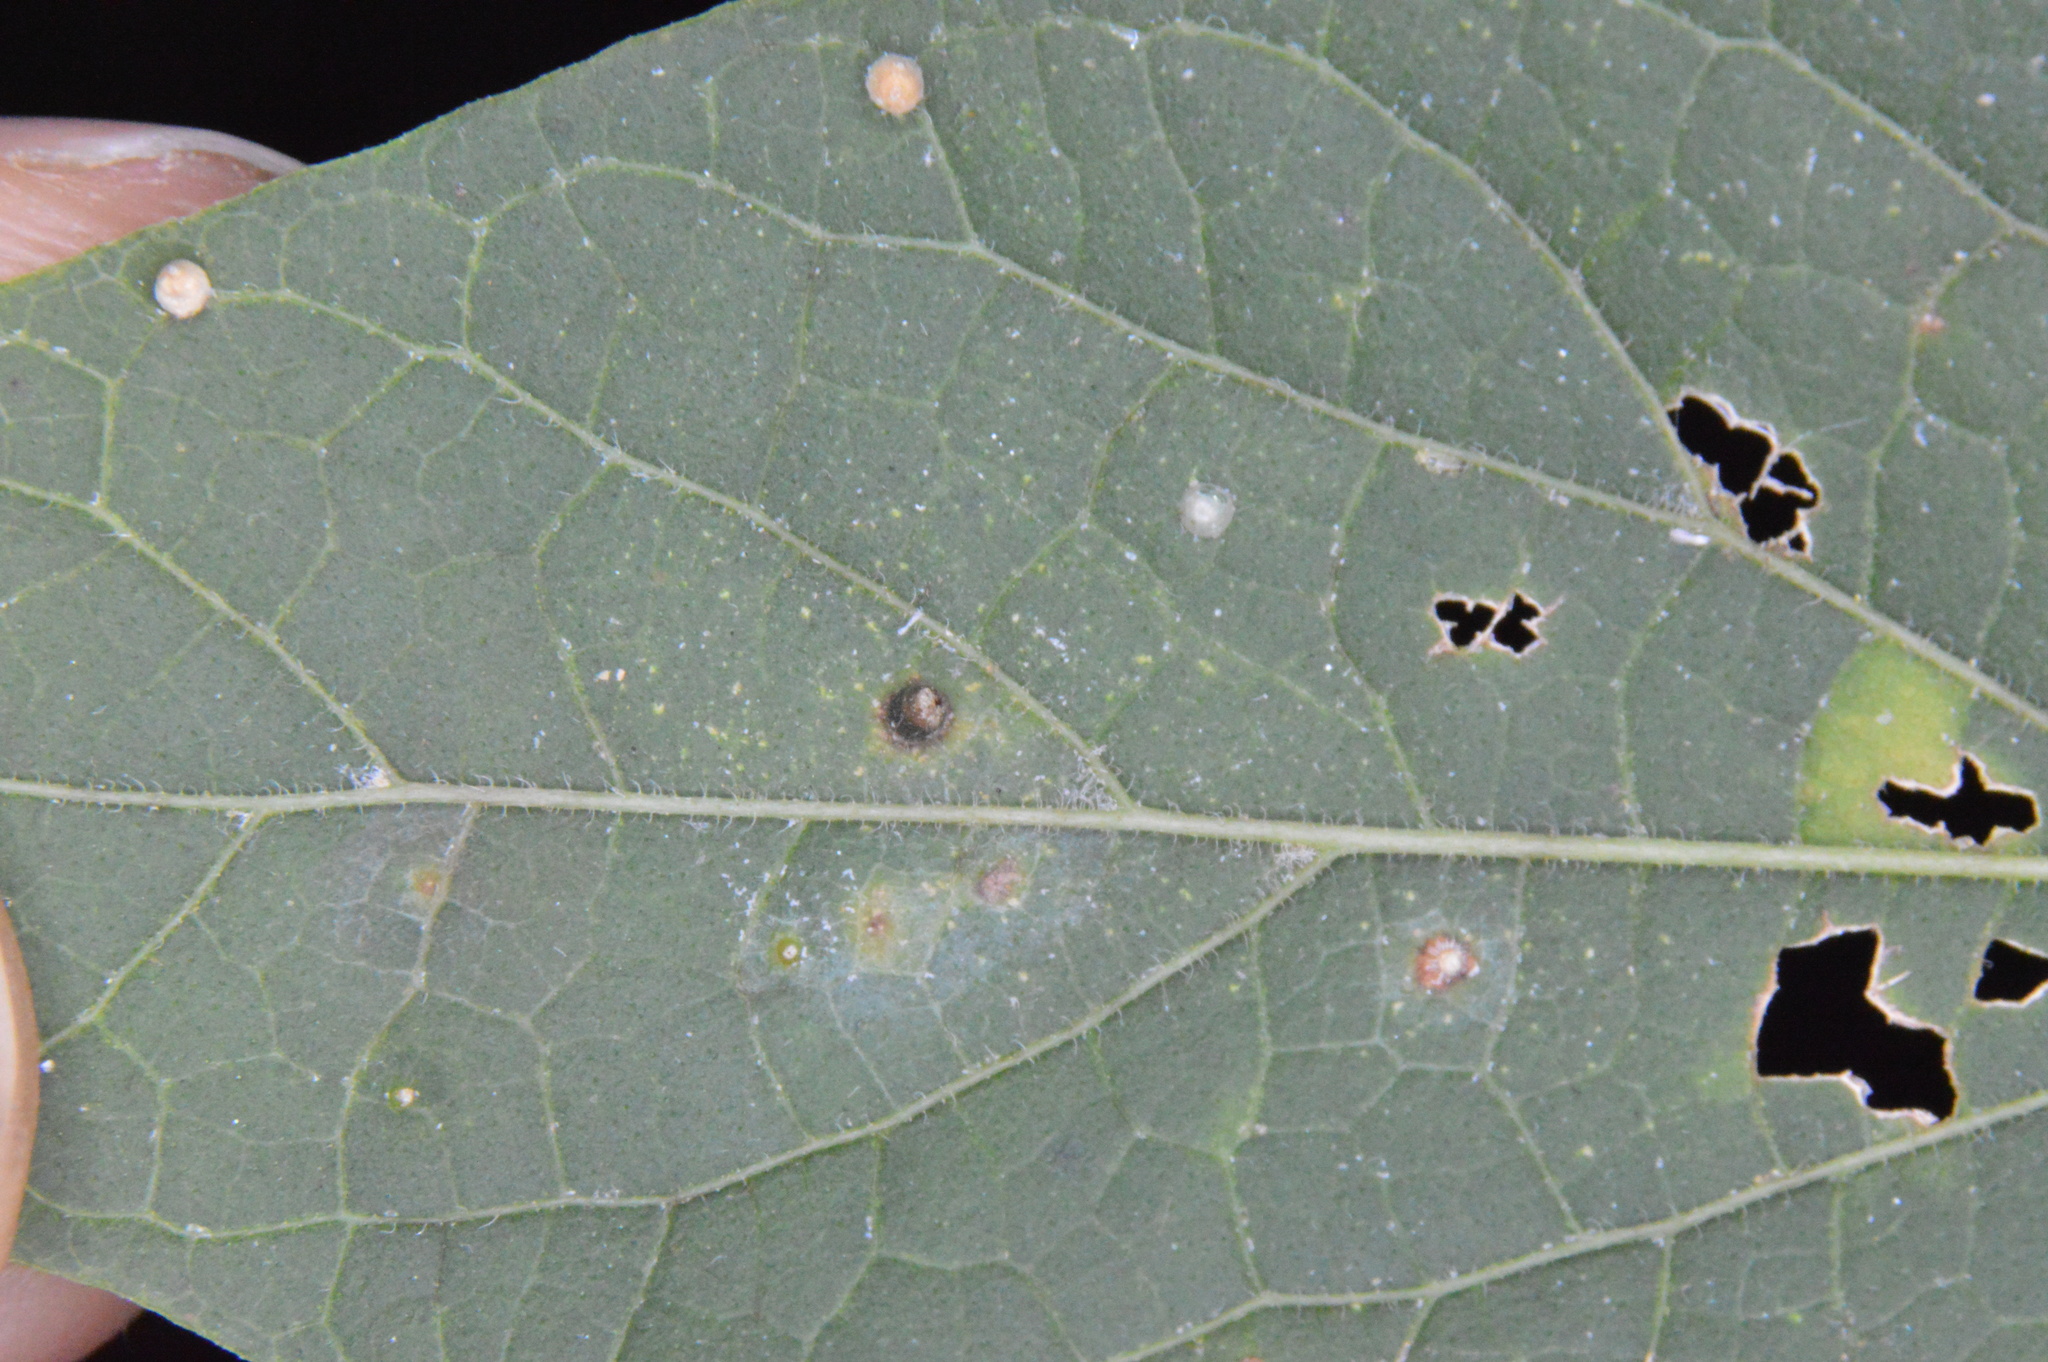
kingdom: Animalia
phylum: Arthropoda
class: Insecta
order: Diptera
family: Cecidomyiidae
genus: Celticecis
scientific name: Celticecis cupiformis
